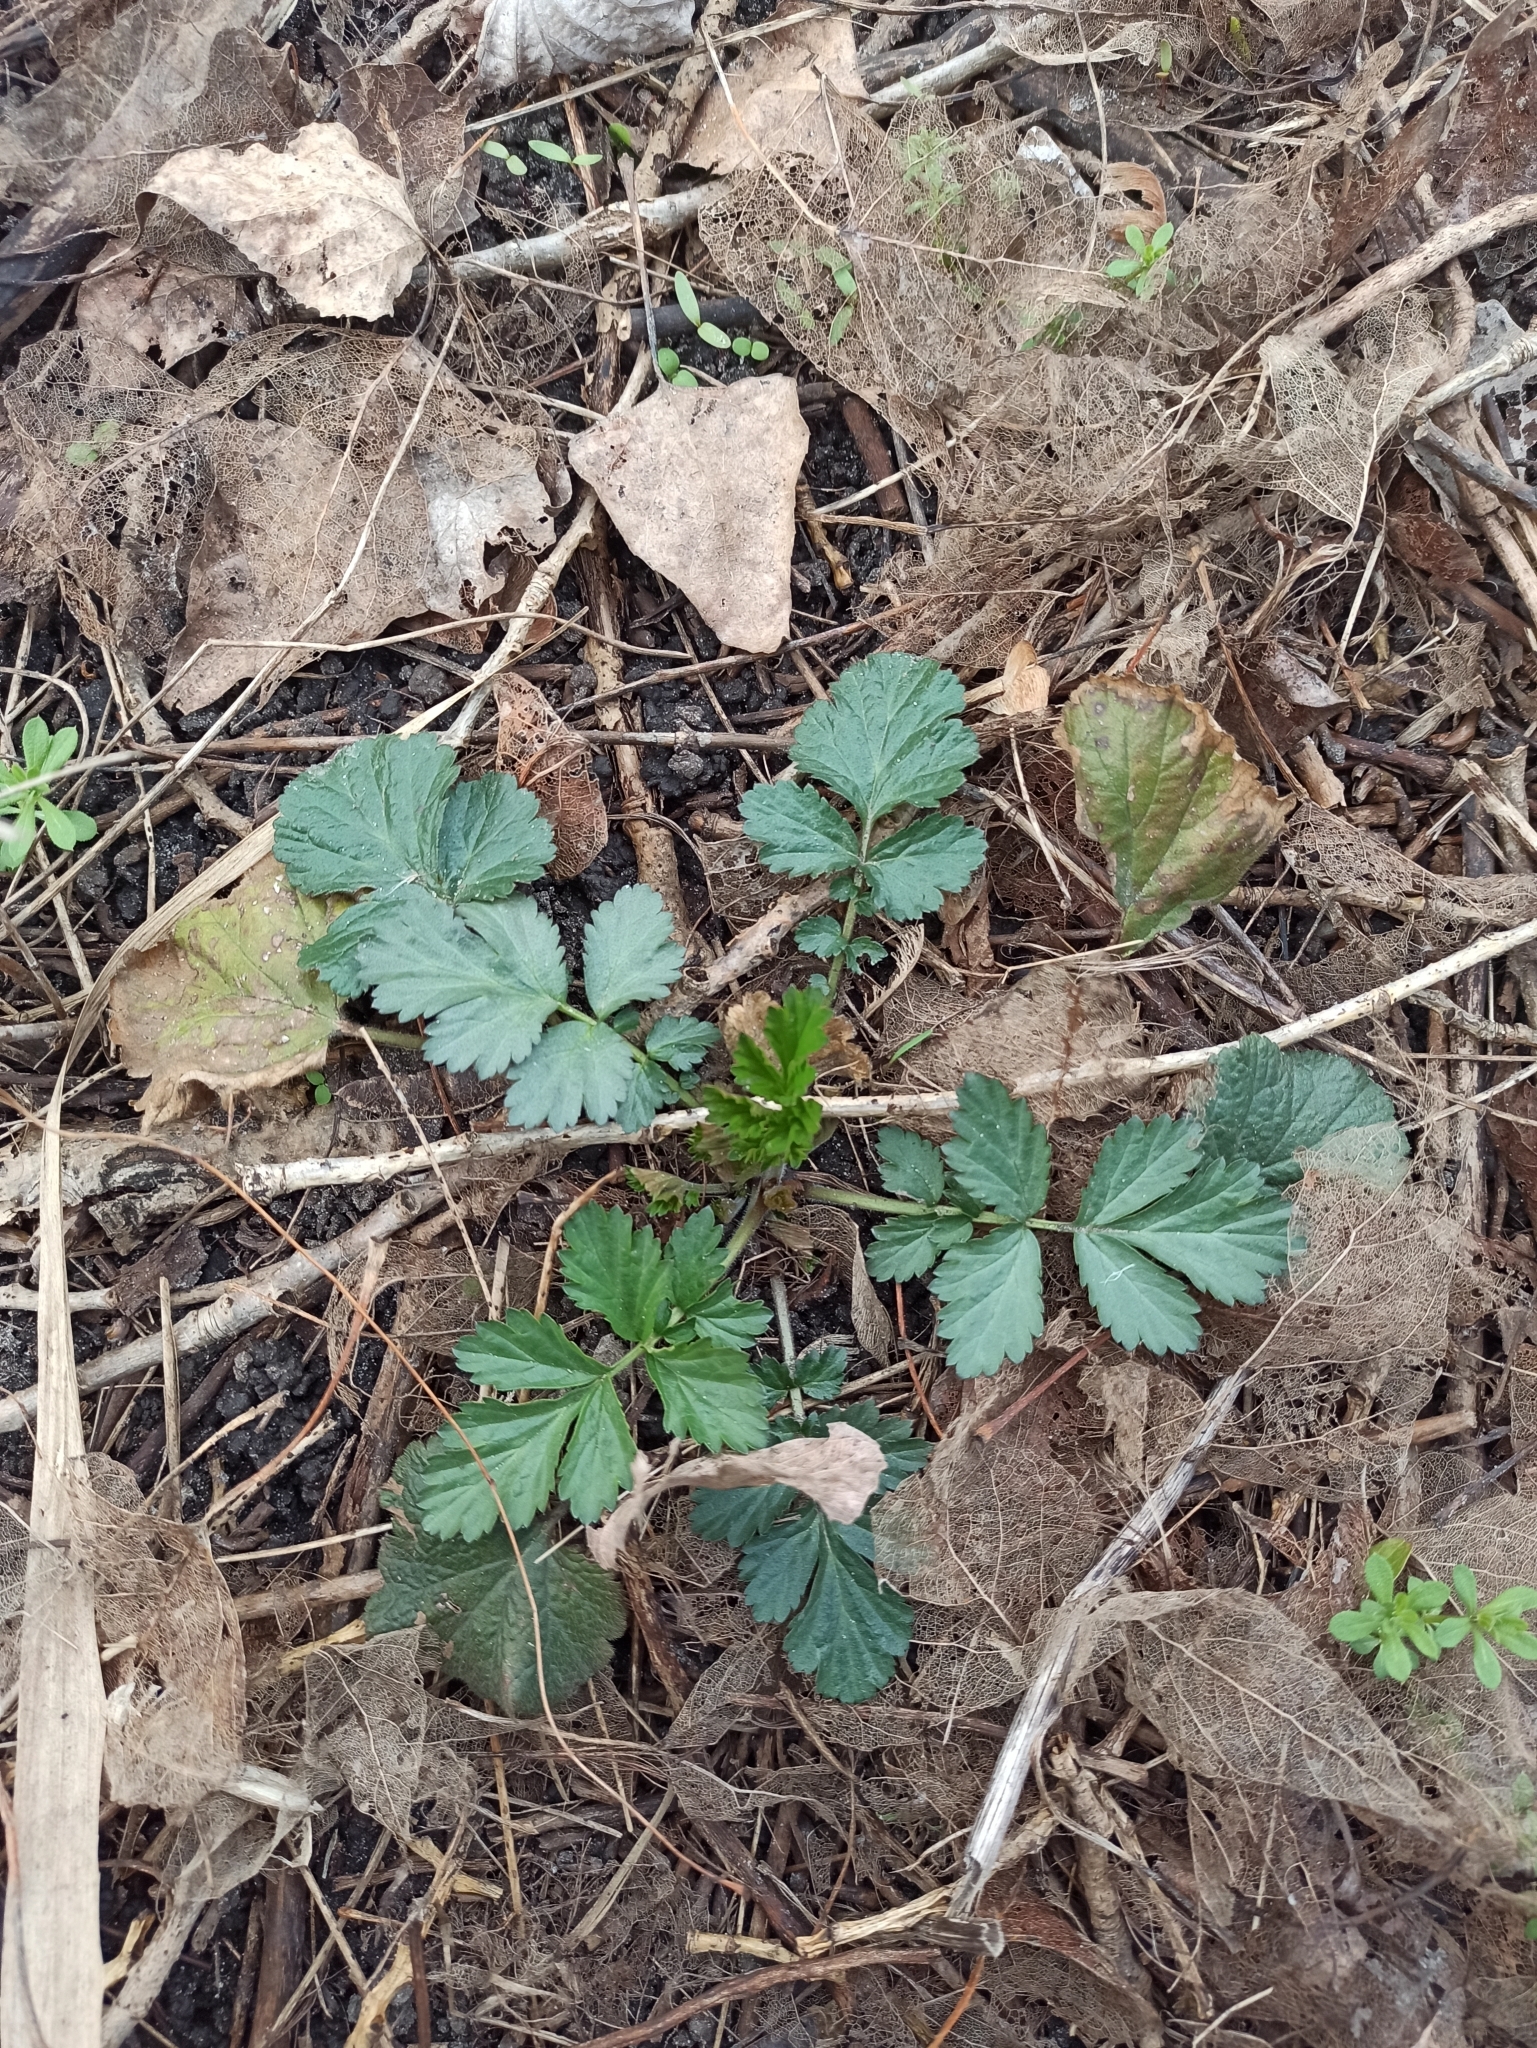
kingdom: Plantae
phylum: Tracheophyta
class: Magnoliopsida
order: Rosales
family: Rosaceae
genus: Geum
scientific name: Geum urbanum
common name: Wood avens
